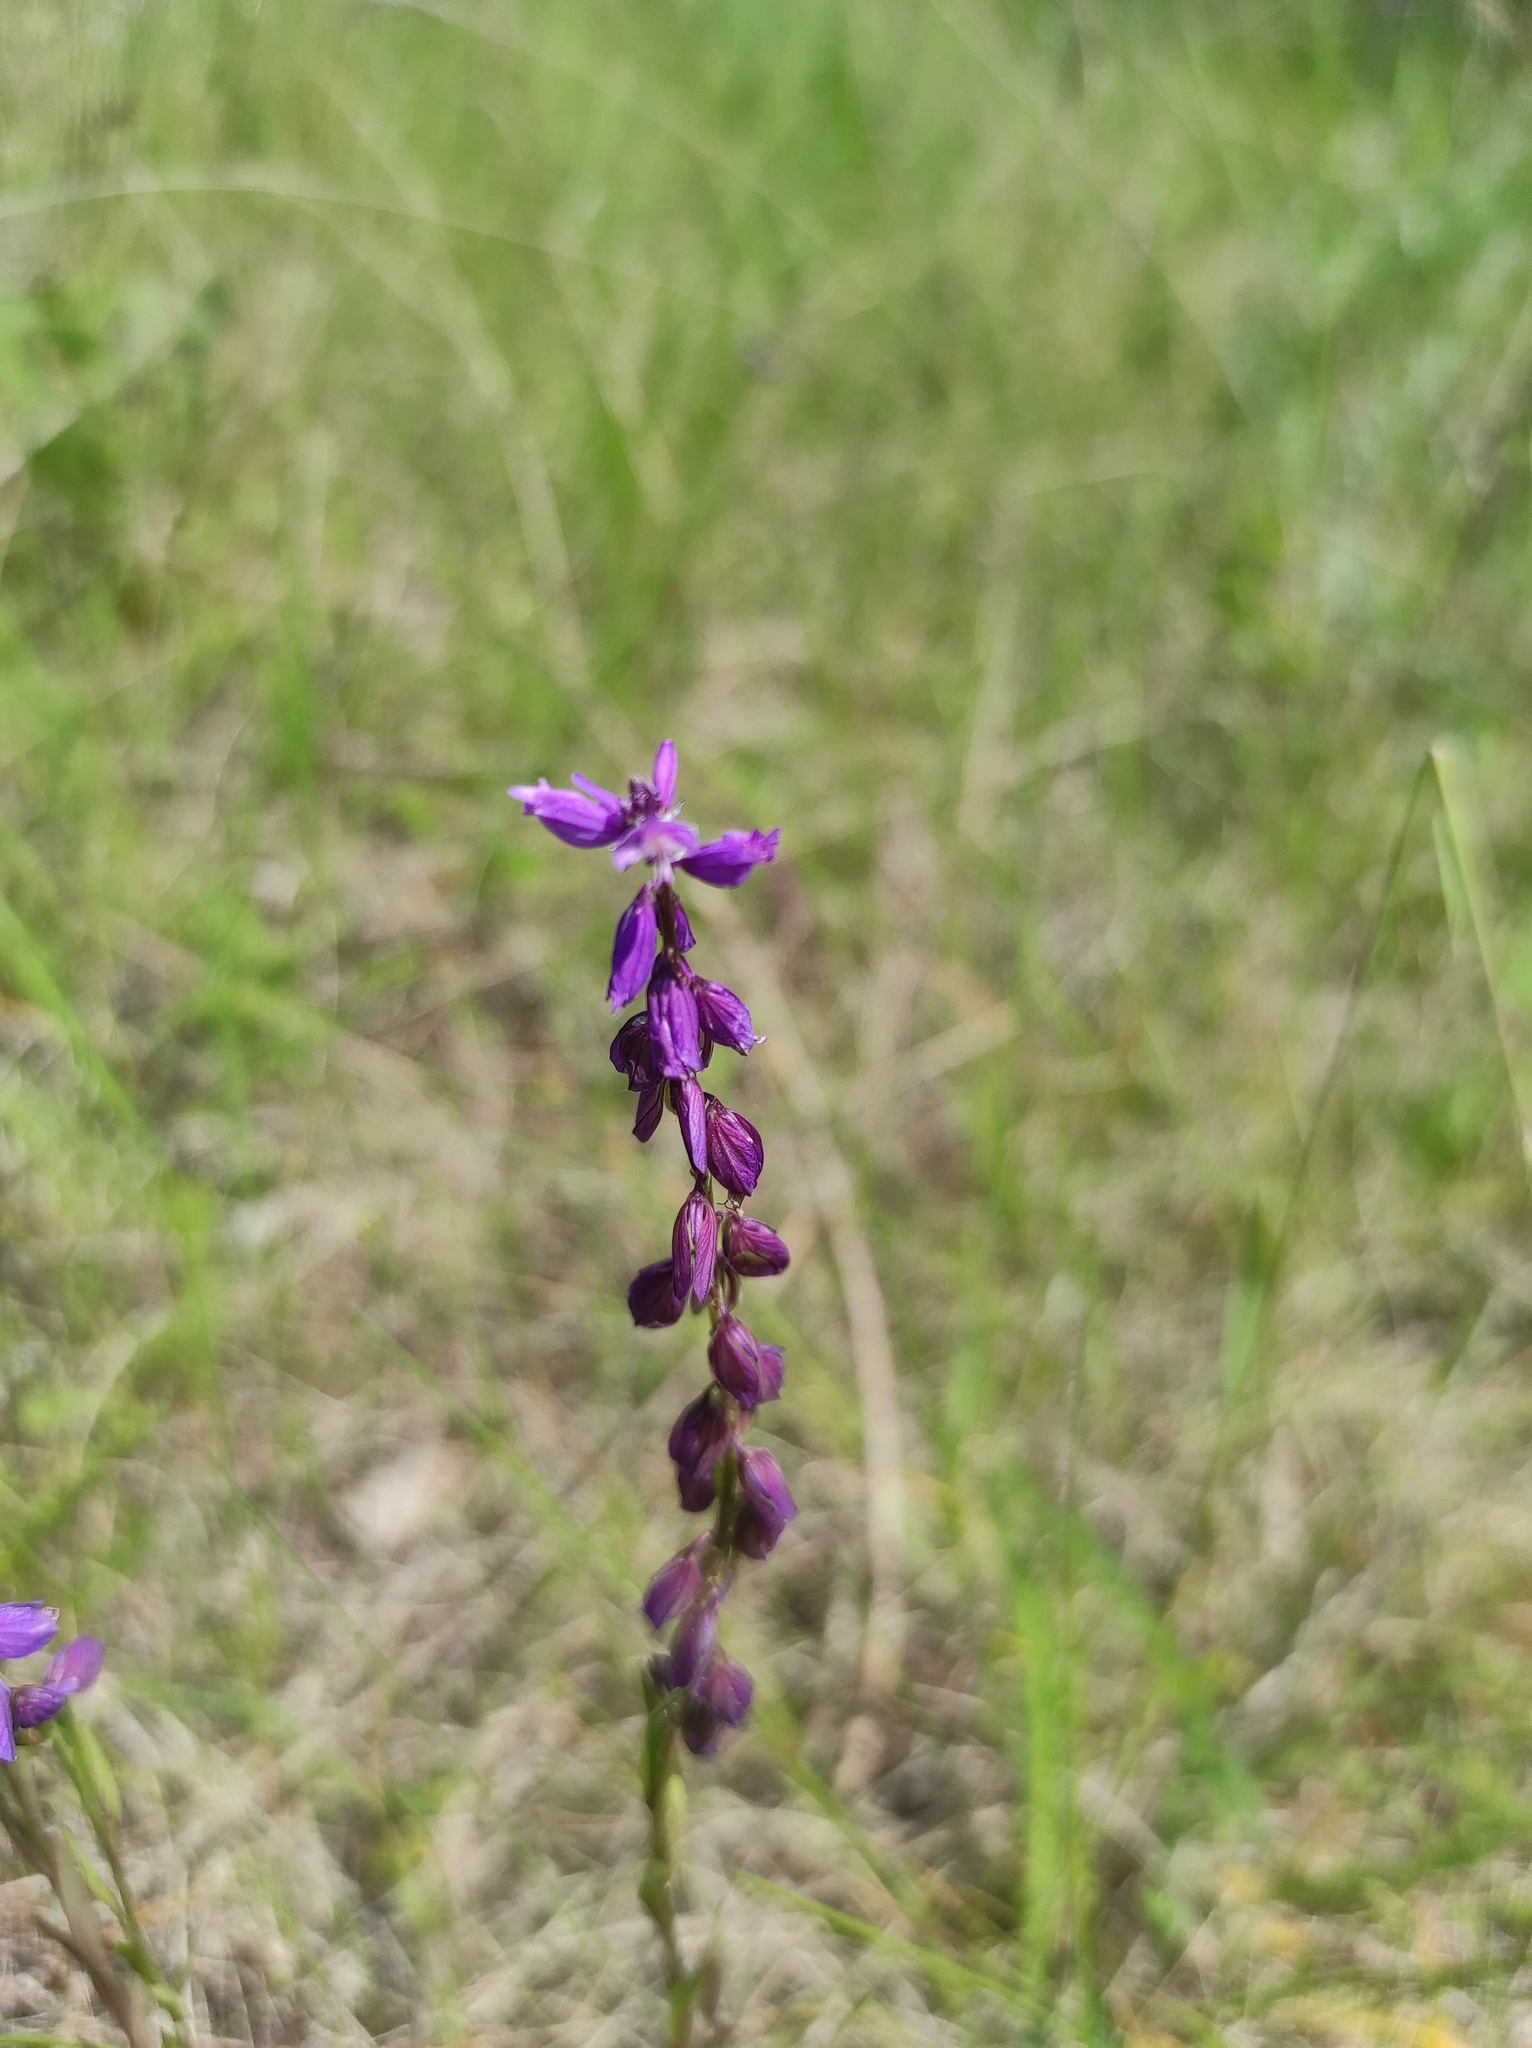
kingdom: Plantae
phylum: Tracheophyta
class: Magnoliopsida
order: Fabales
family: Polygalaceae
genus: Polygala
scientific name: Polygala comosa
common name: Tufted milkwort
